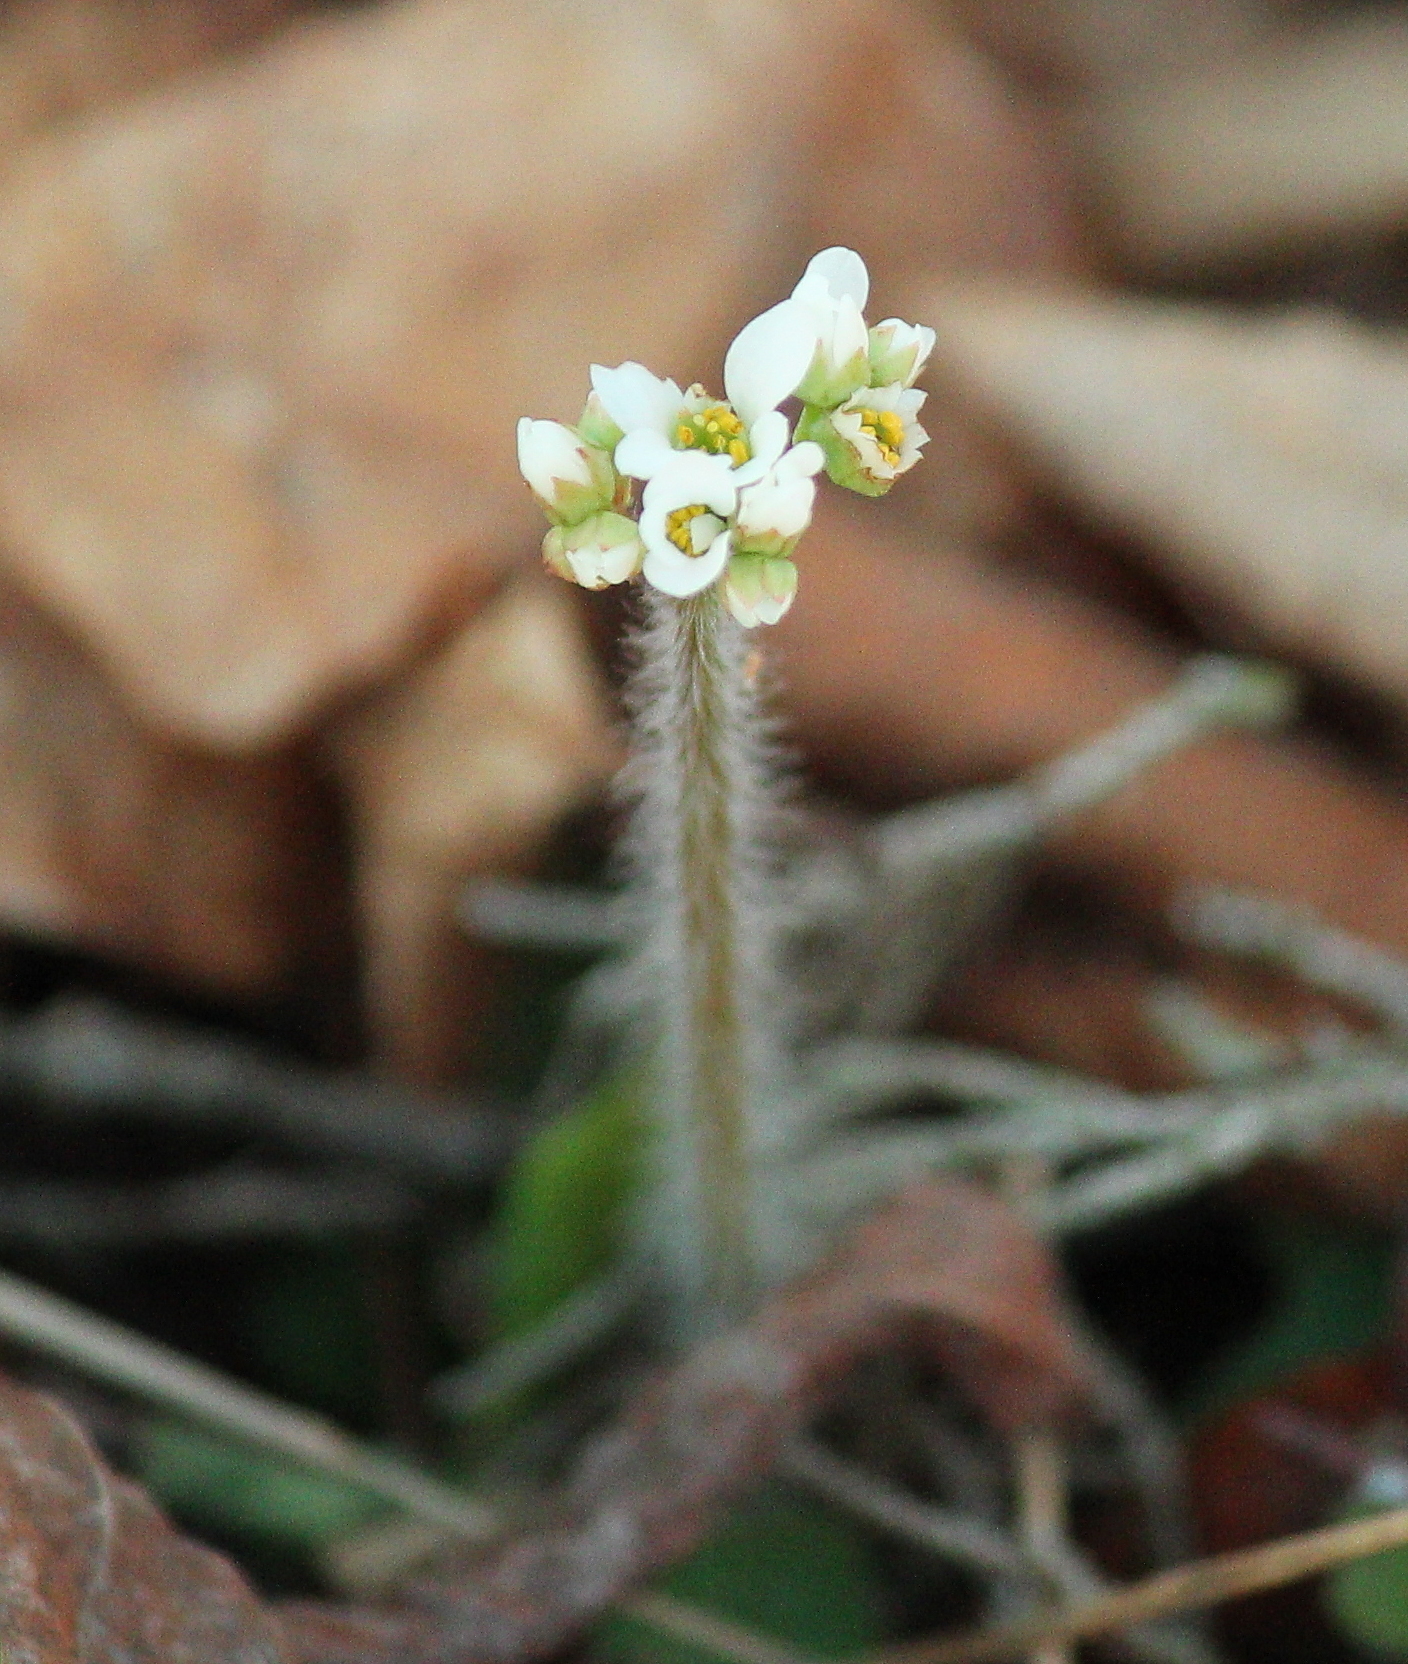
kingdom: Plantae
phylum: Tracheophyta
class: Magnoliopsida
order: Saxifragales
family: Saxifragaceae
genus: Micranthes
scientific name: Micranthes palmeri
